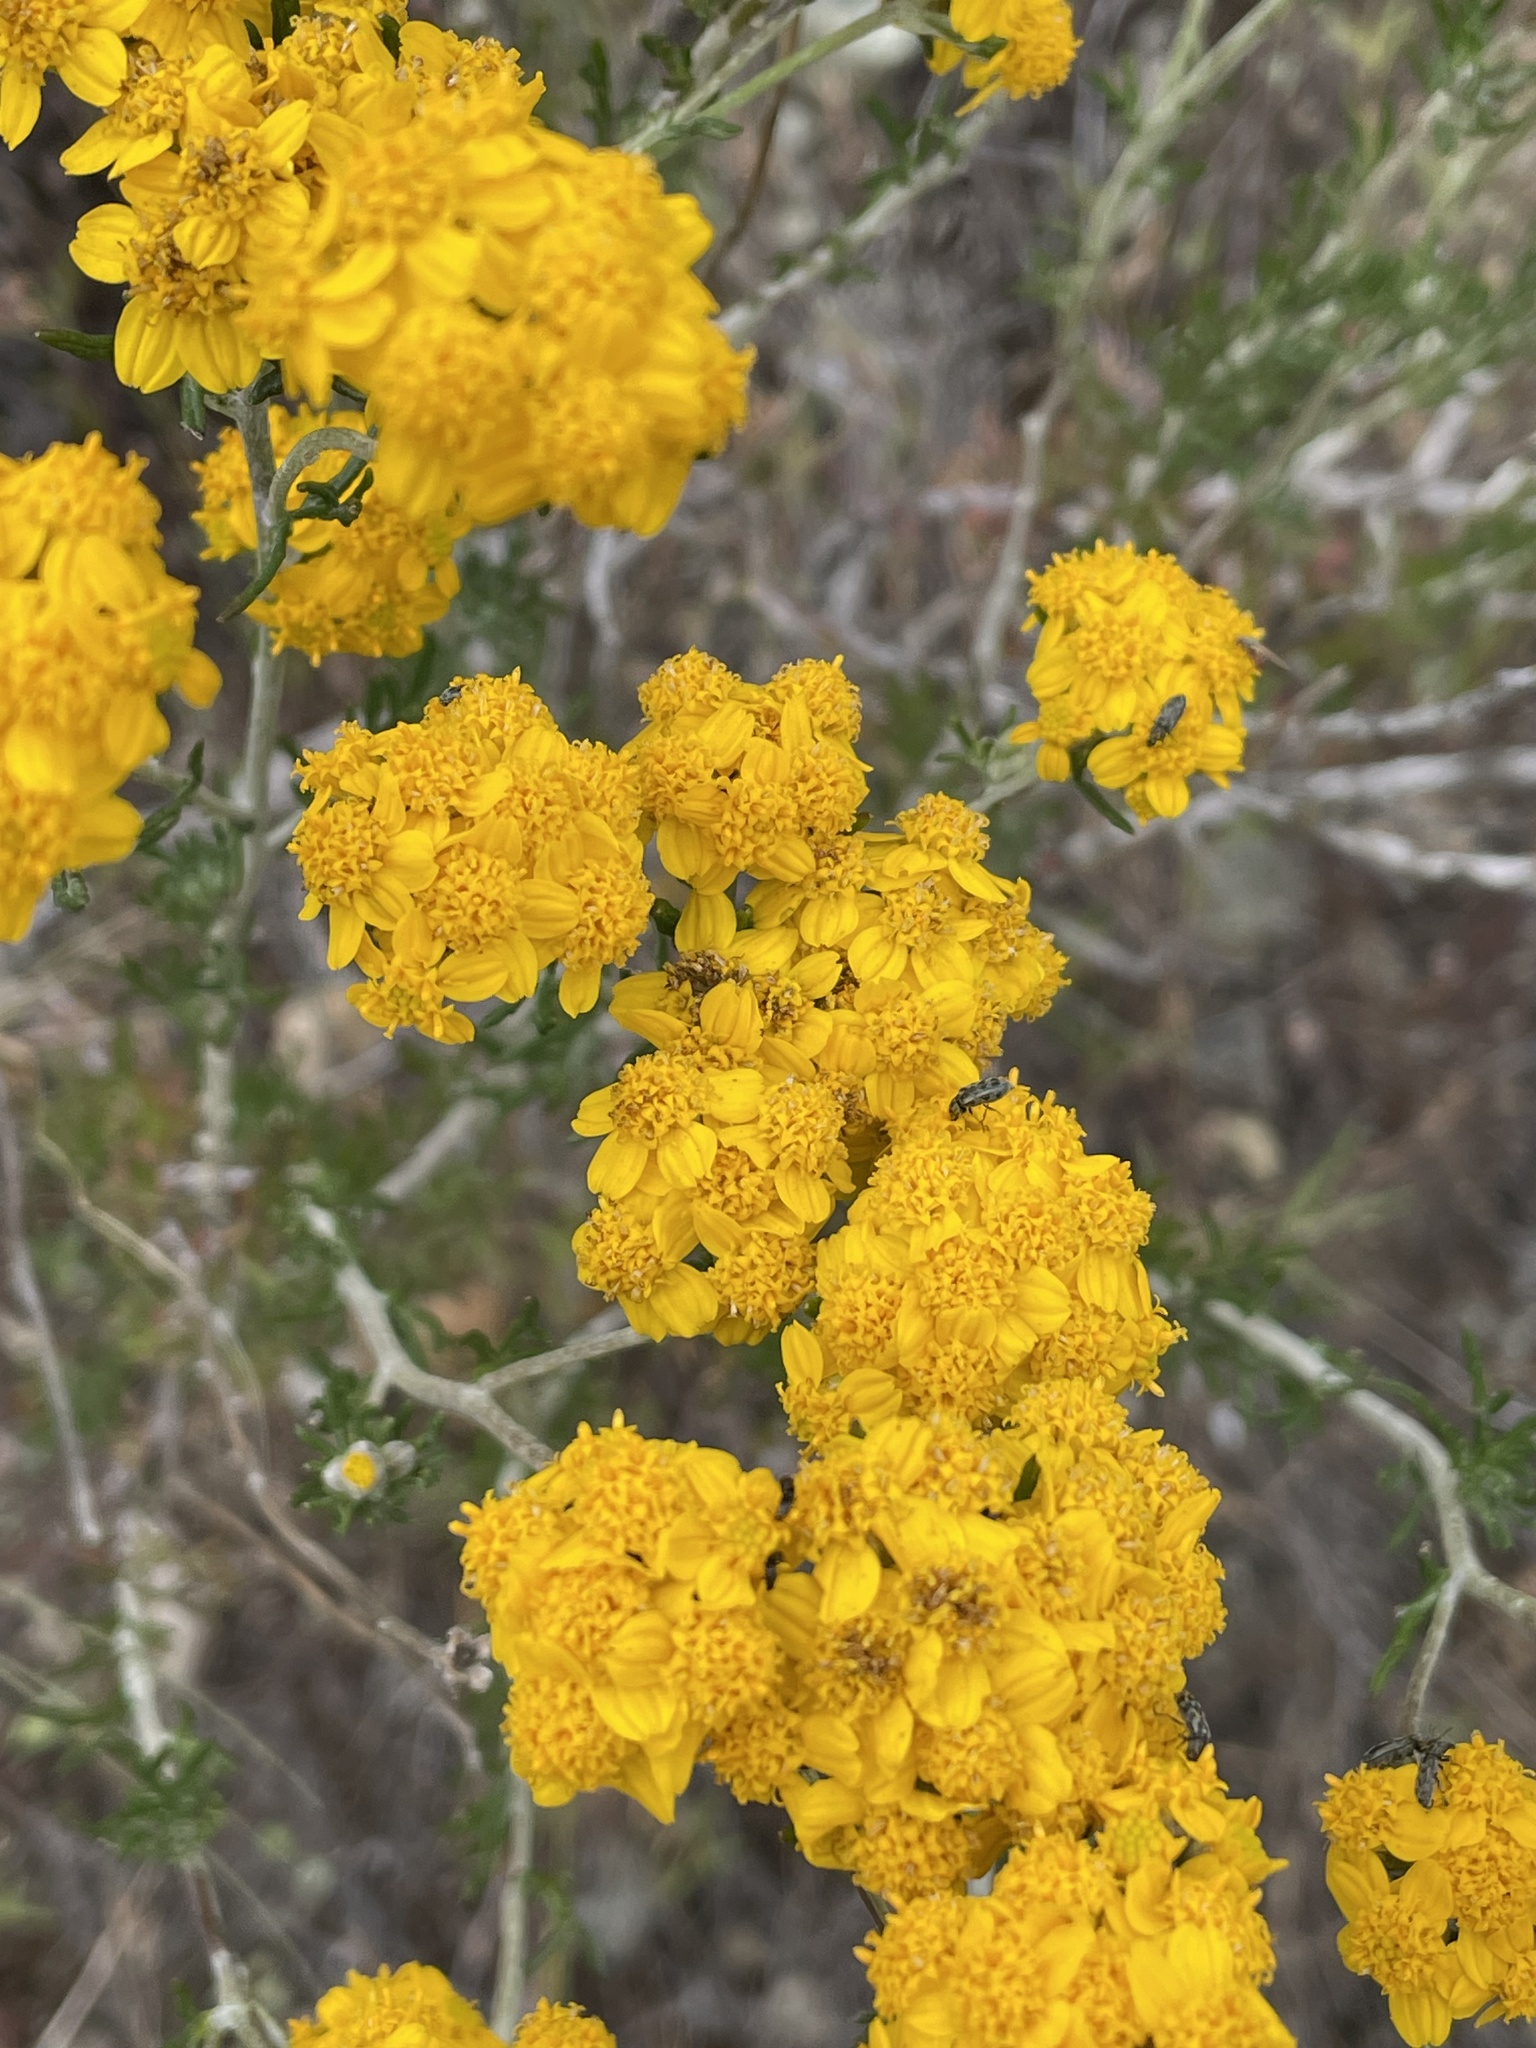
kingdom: Plantae
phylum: Tracheophyta
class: Magnoliopsida
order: Asterales
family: Asteraceae
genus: Eriophyllum
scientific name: Eriophyllum confertiflorum
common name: Golden-yarrow
